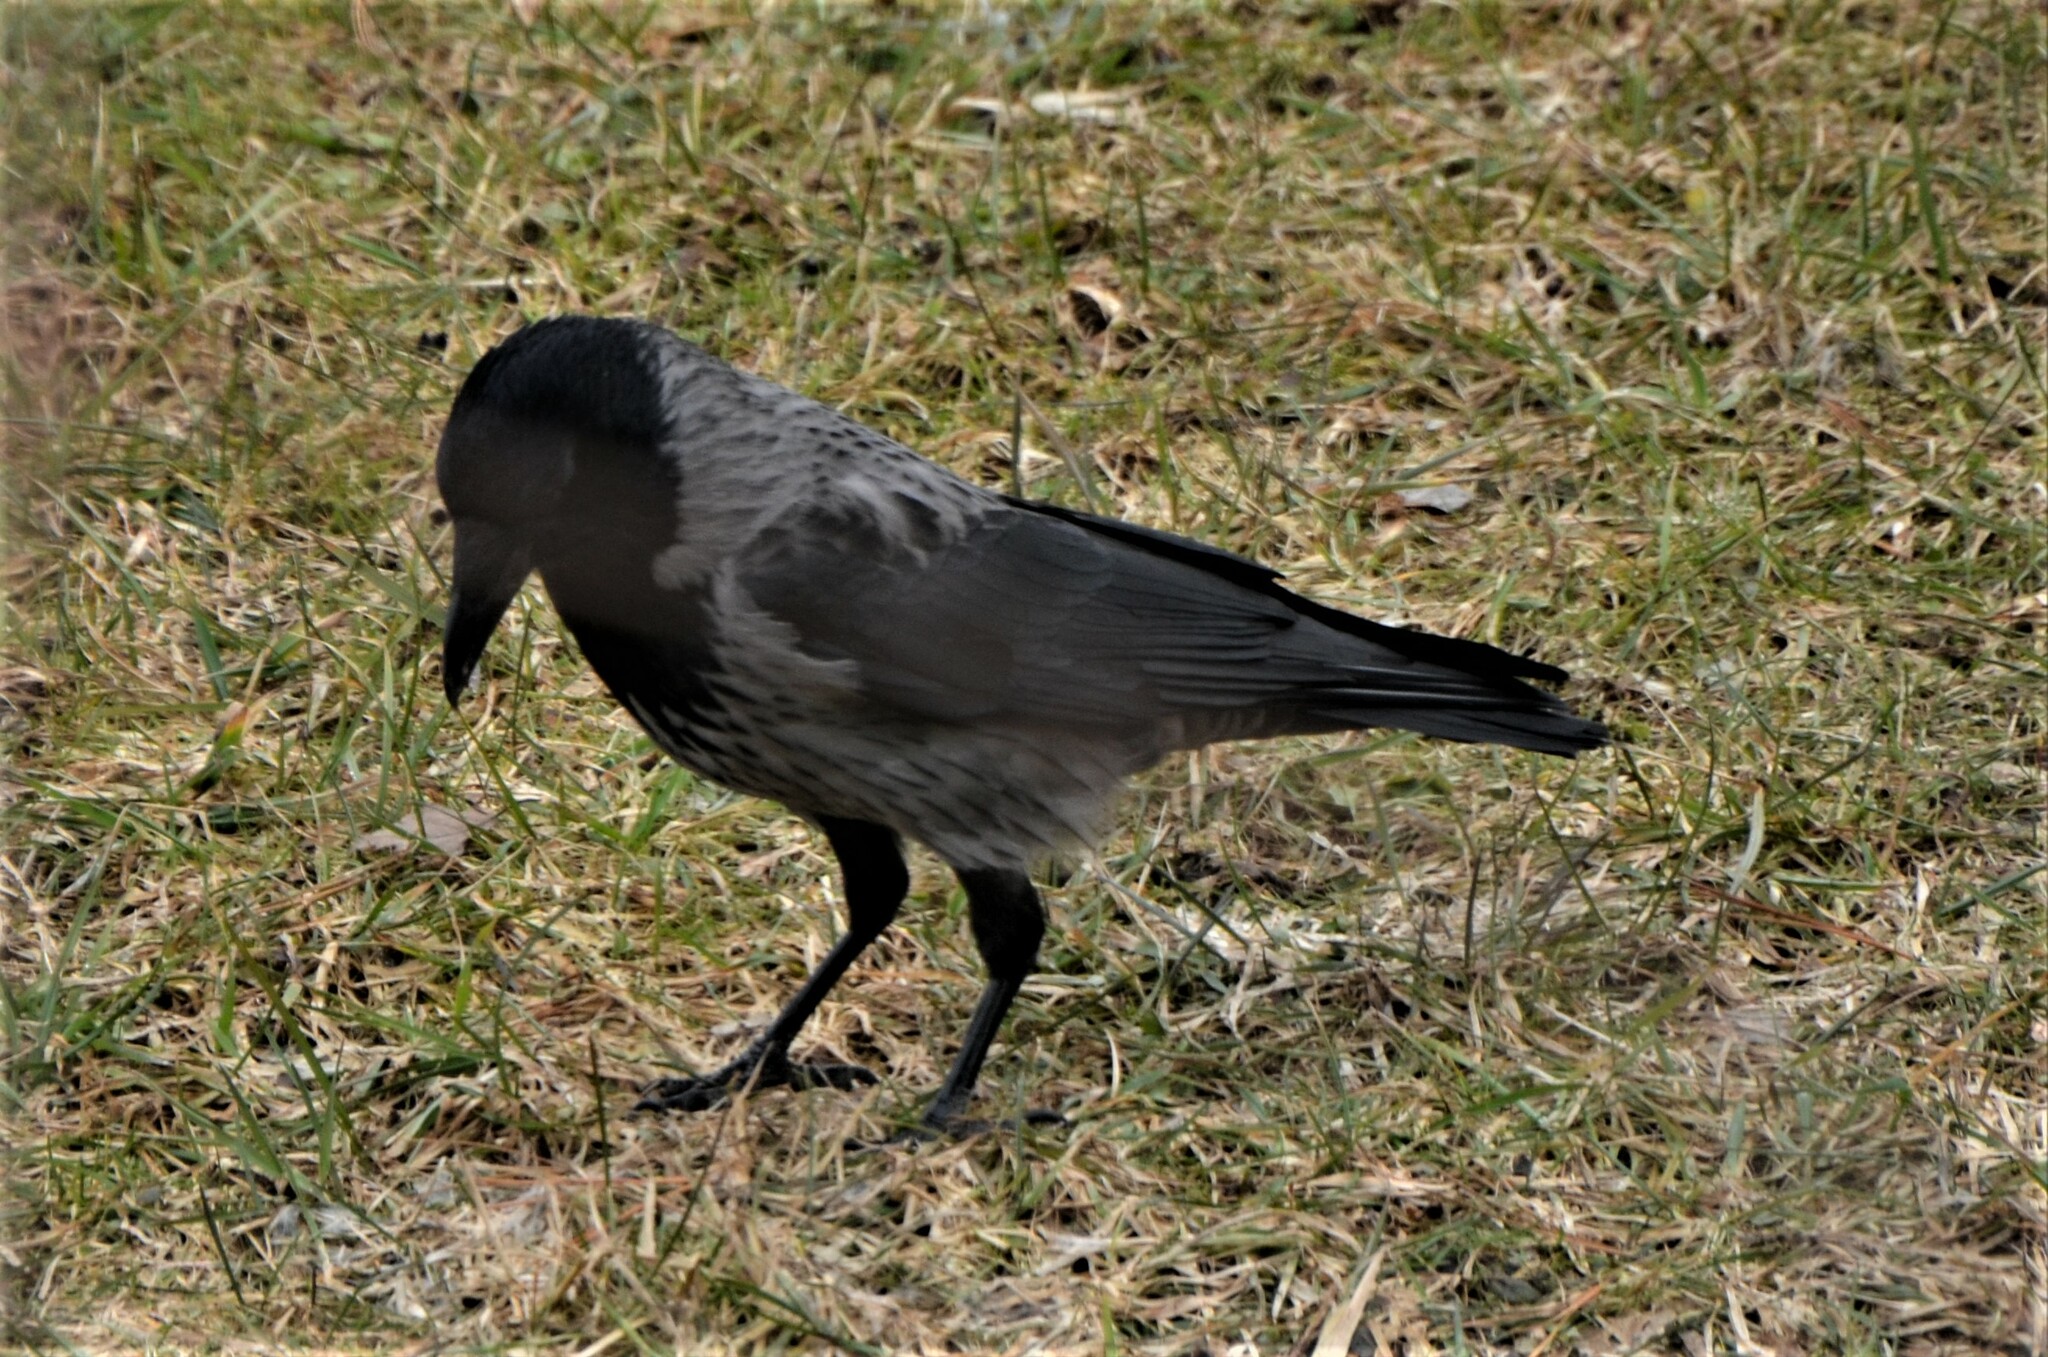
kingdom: Animalia
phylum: Chordata
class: Aves
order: Passeriformes
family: Corvidae
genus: Corvus
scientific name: Corvus
